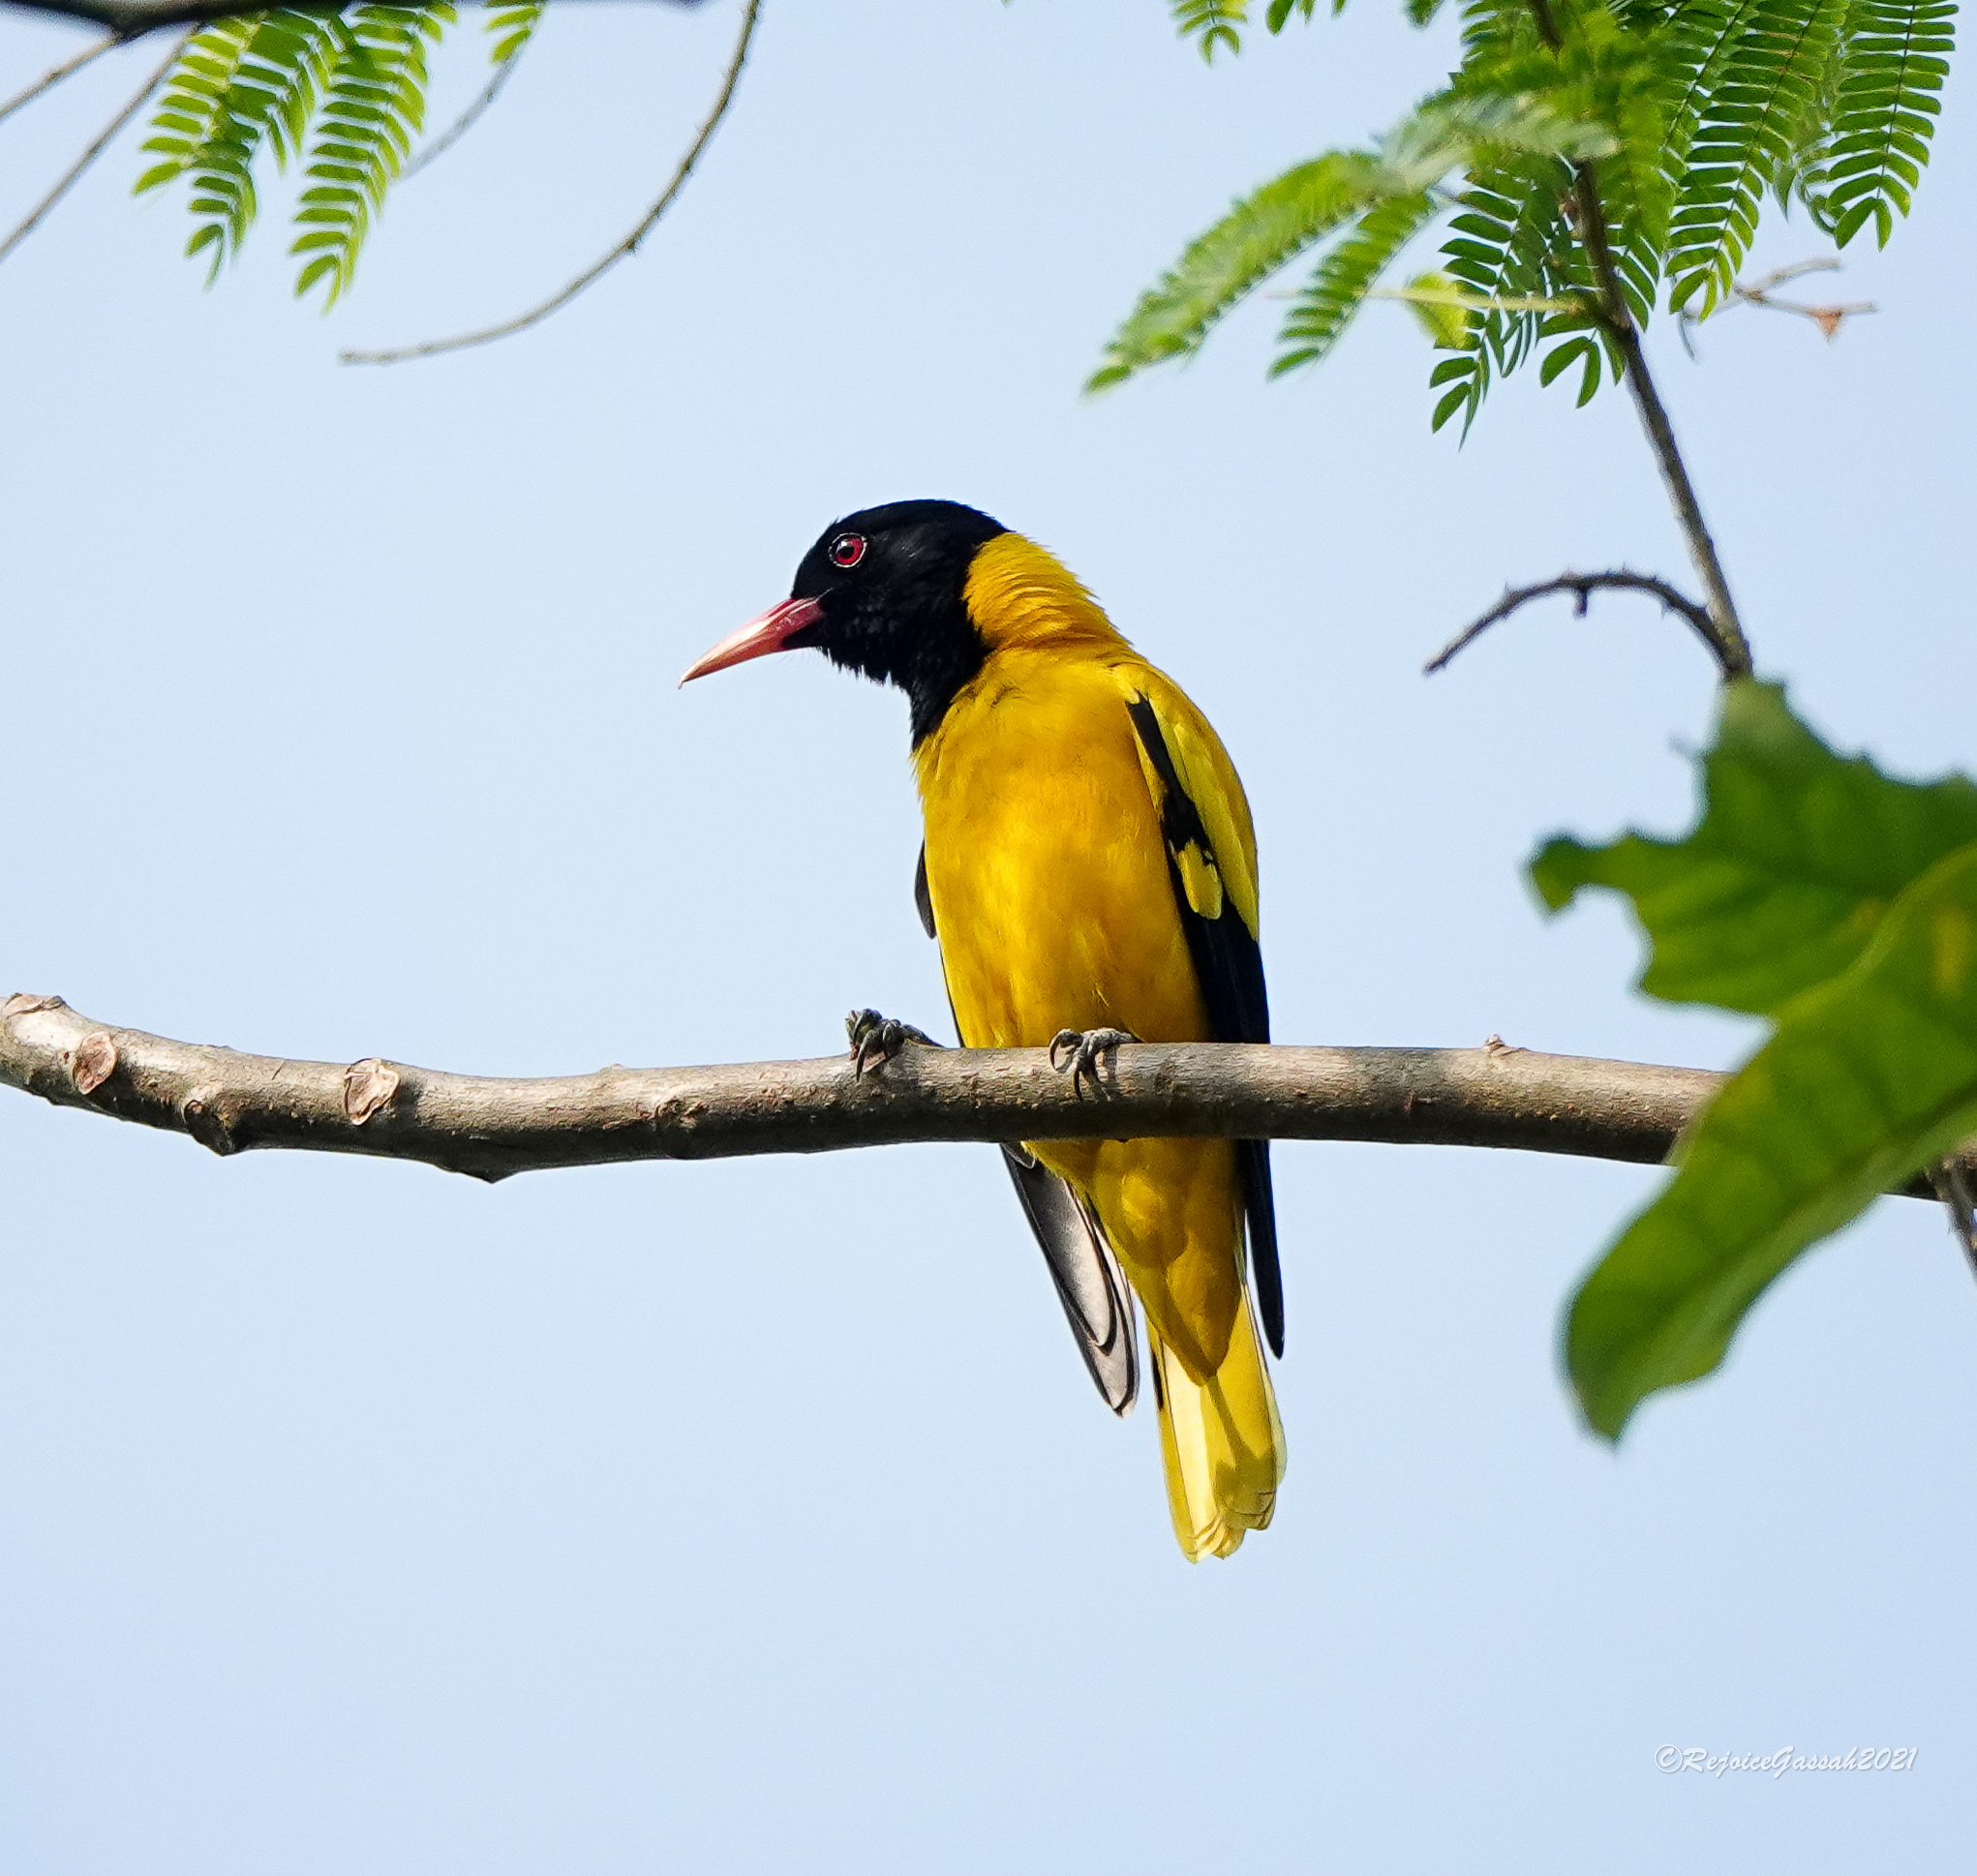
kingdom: Animalia
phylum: Chordata
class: Aves
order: Passeriformes
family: Oriolidae
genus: Oriolus
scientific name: Oriolus xanthornus
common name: Black-hooded oriole
